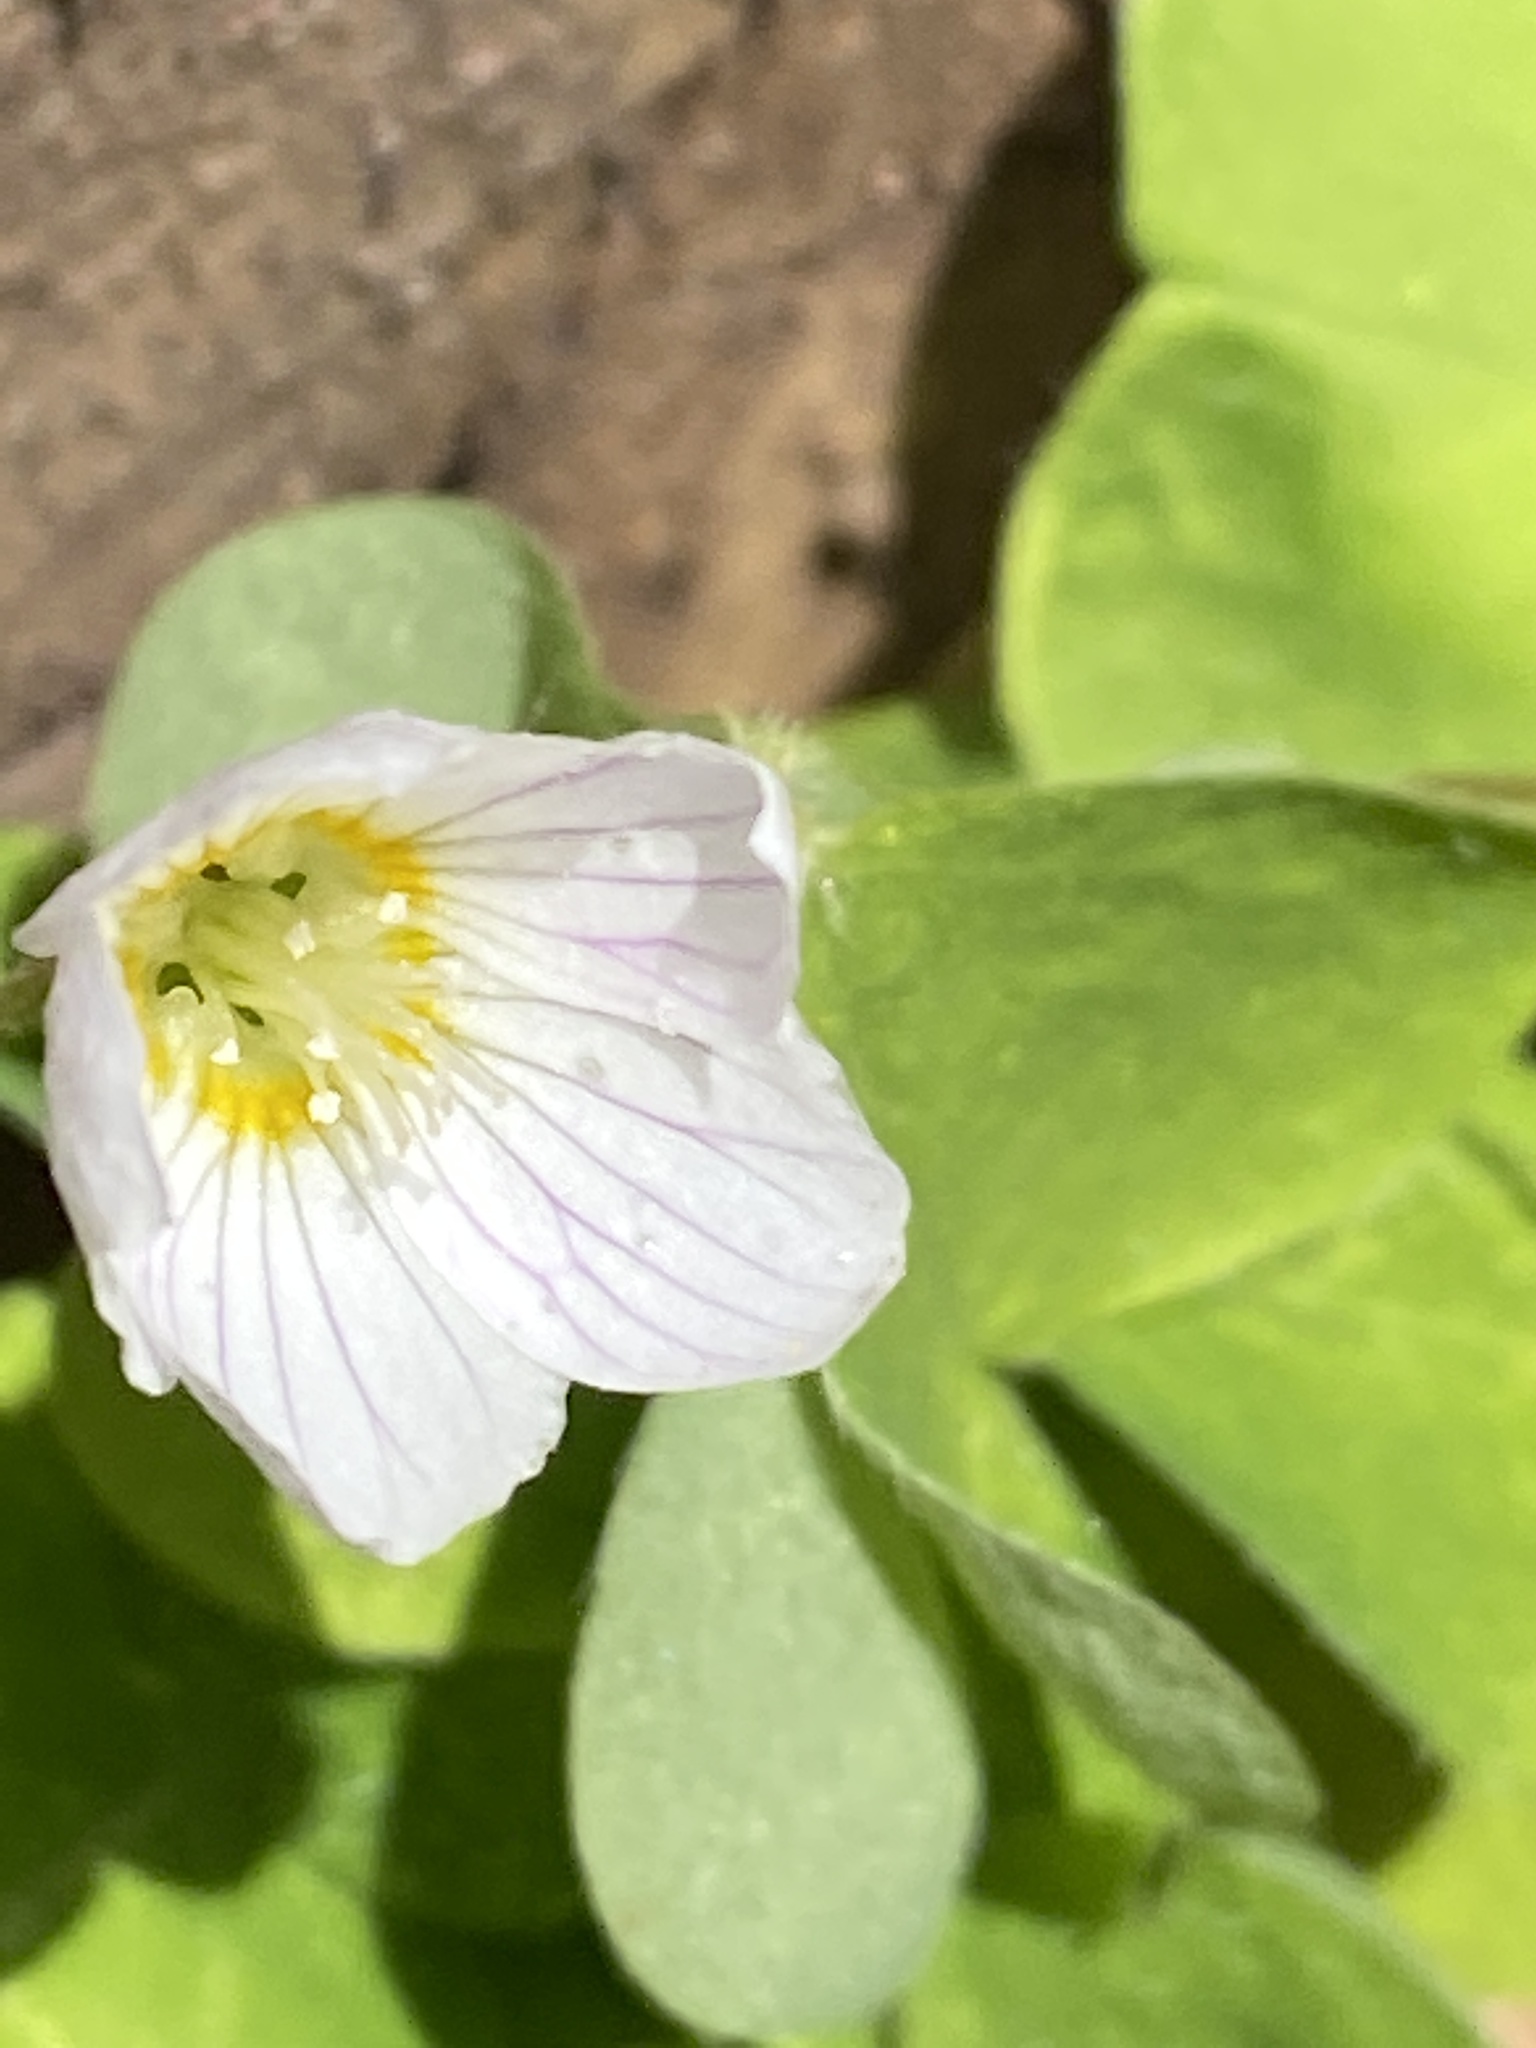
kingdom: Plantae
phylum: Tracheophyta
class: Magnoliopsida
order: Oxalidales
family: Oxalidaceae
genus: Oxalis
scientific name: Oxalis acetosella
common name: Wood-sorrel
